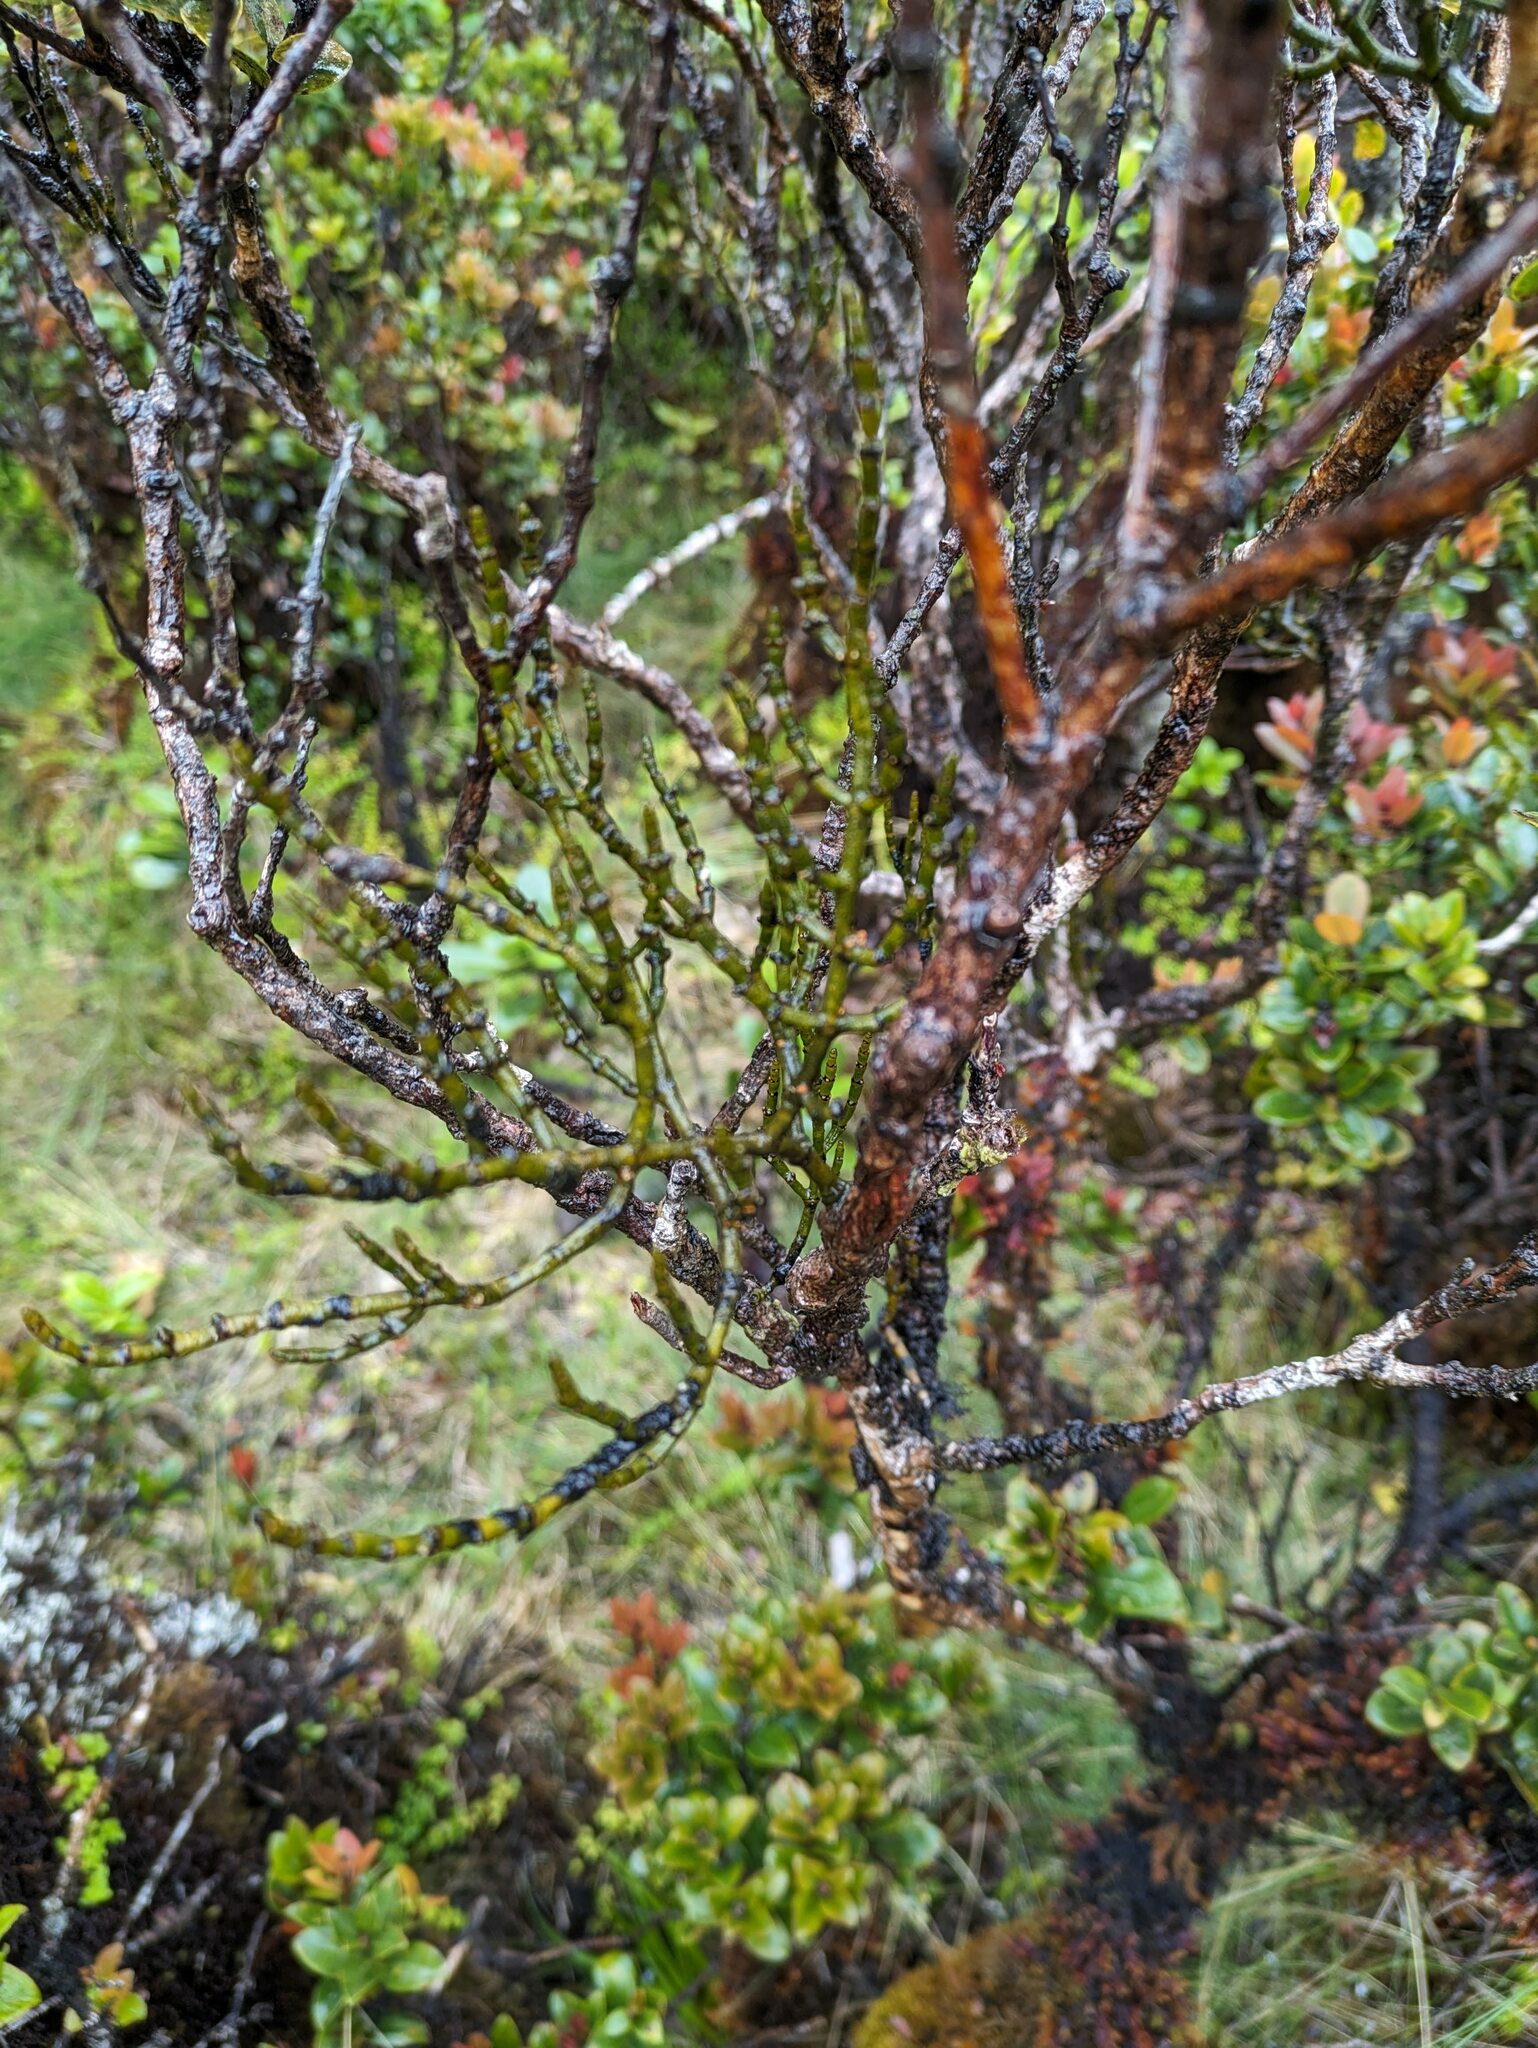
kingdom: Plantae
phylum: Tracheophyta
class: Magnoliopsida
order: Santalales
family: Viscaceae
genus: Korthalsella
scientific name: Korthalsella remyana
